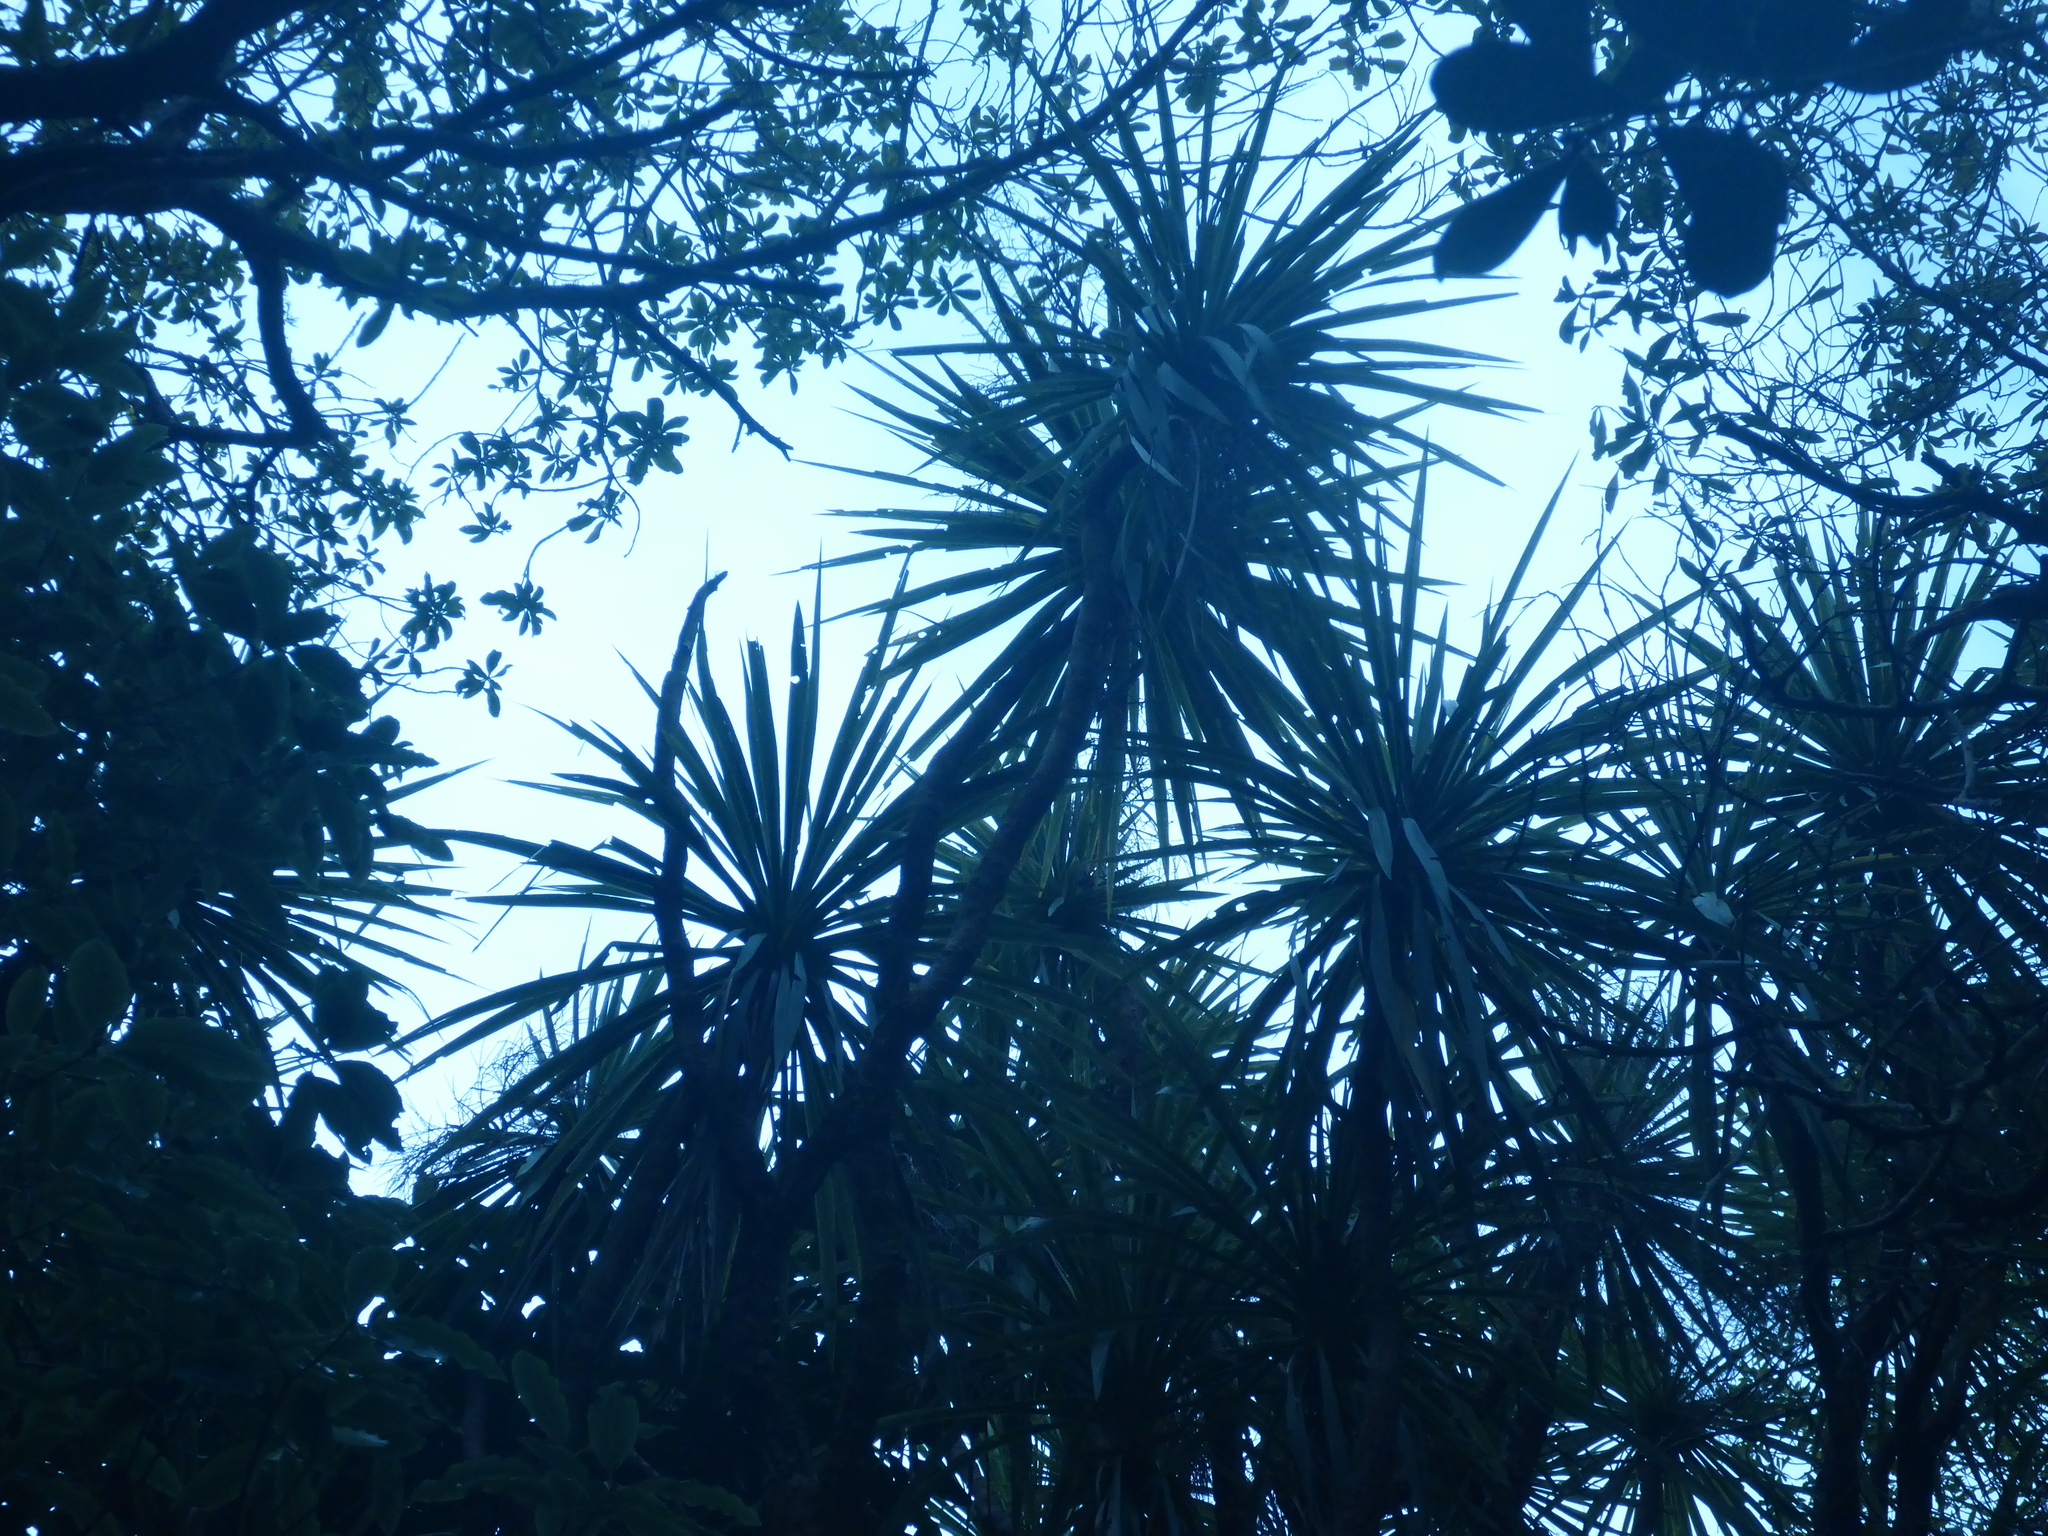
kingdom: Plantae
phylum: Tracheophyta
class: Liliopsida
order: Asparagales
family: Asparagaceae
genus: Cordyline
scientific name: Cordyline australis
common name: Cabbage-palm
